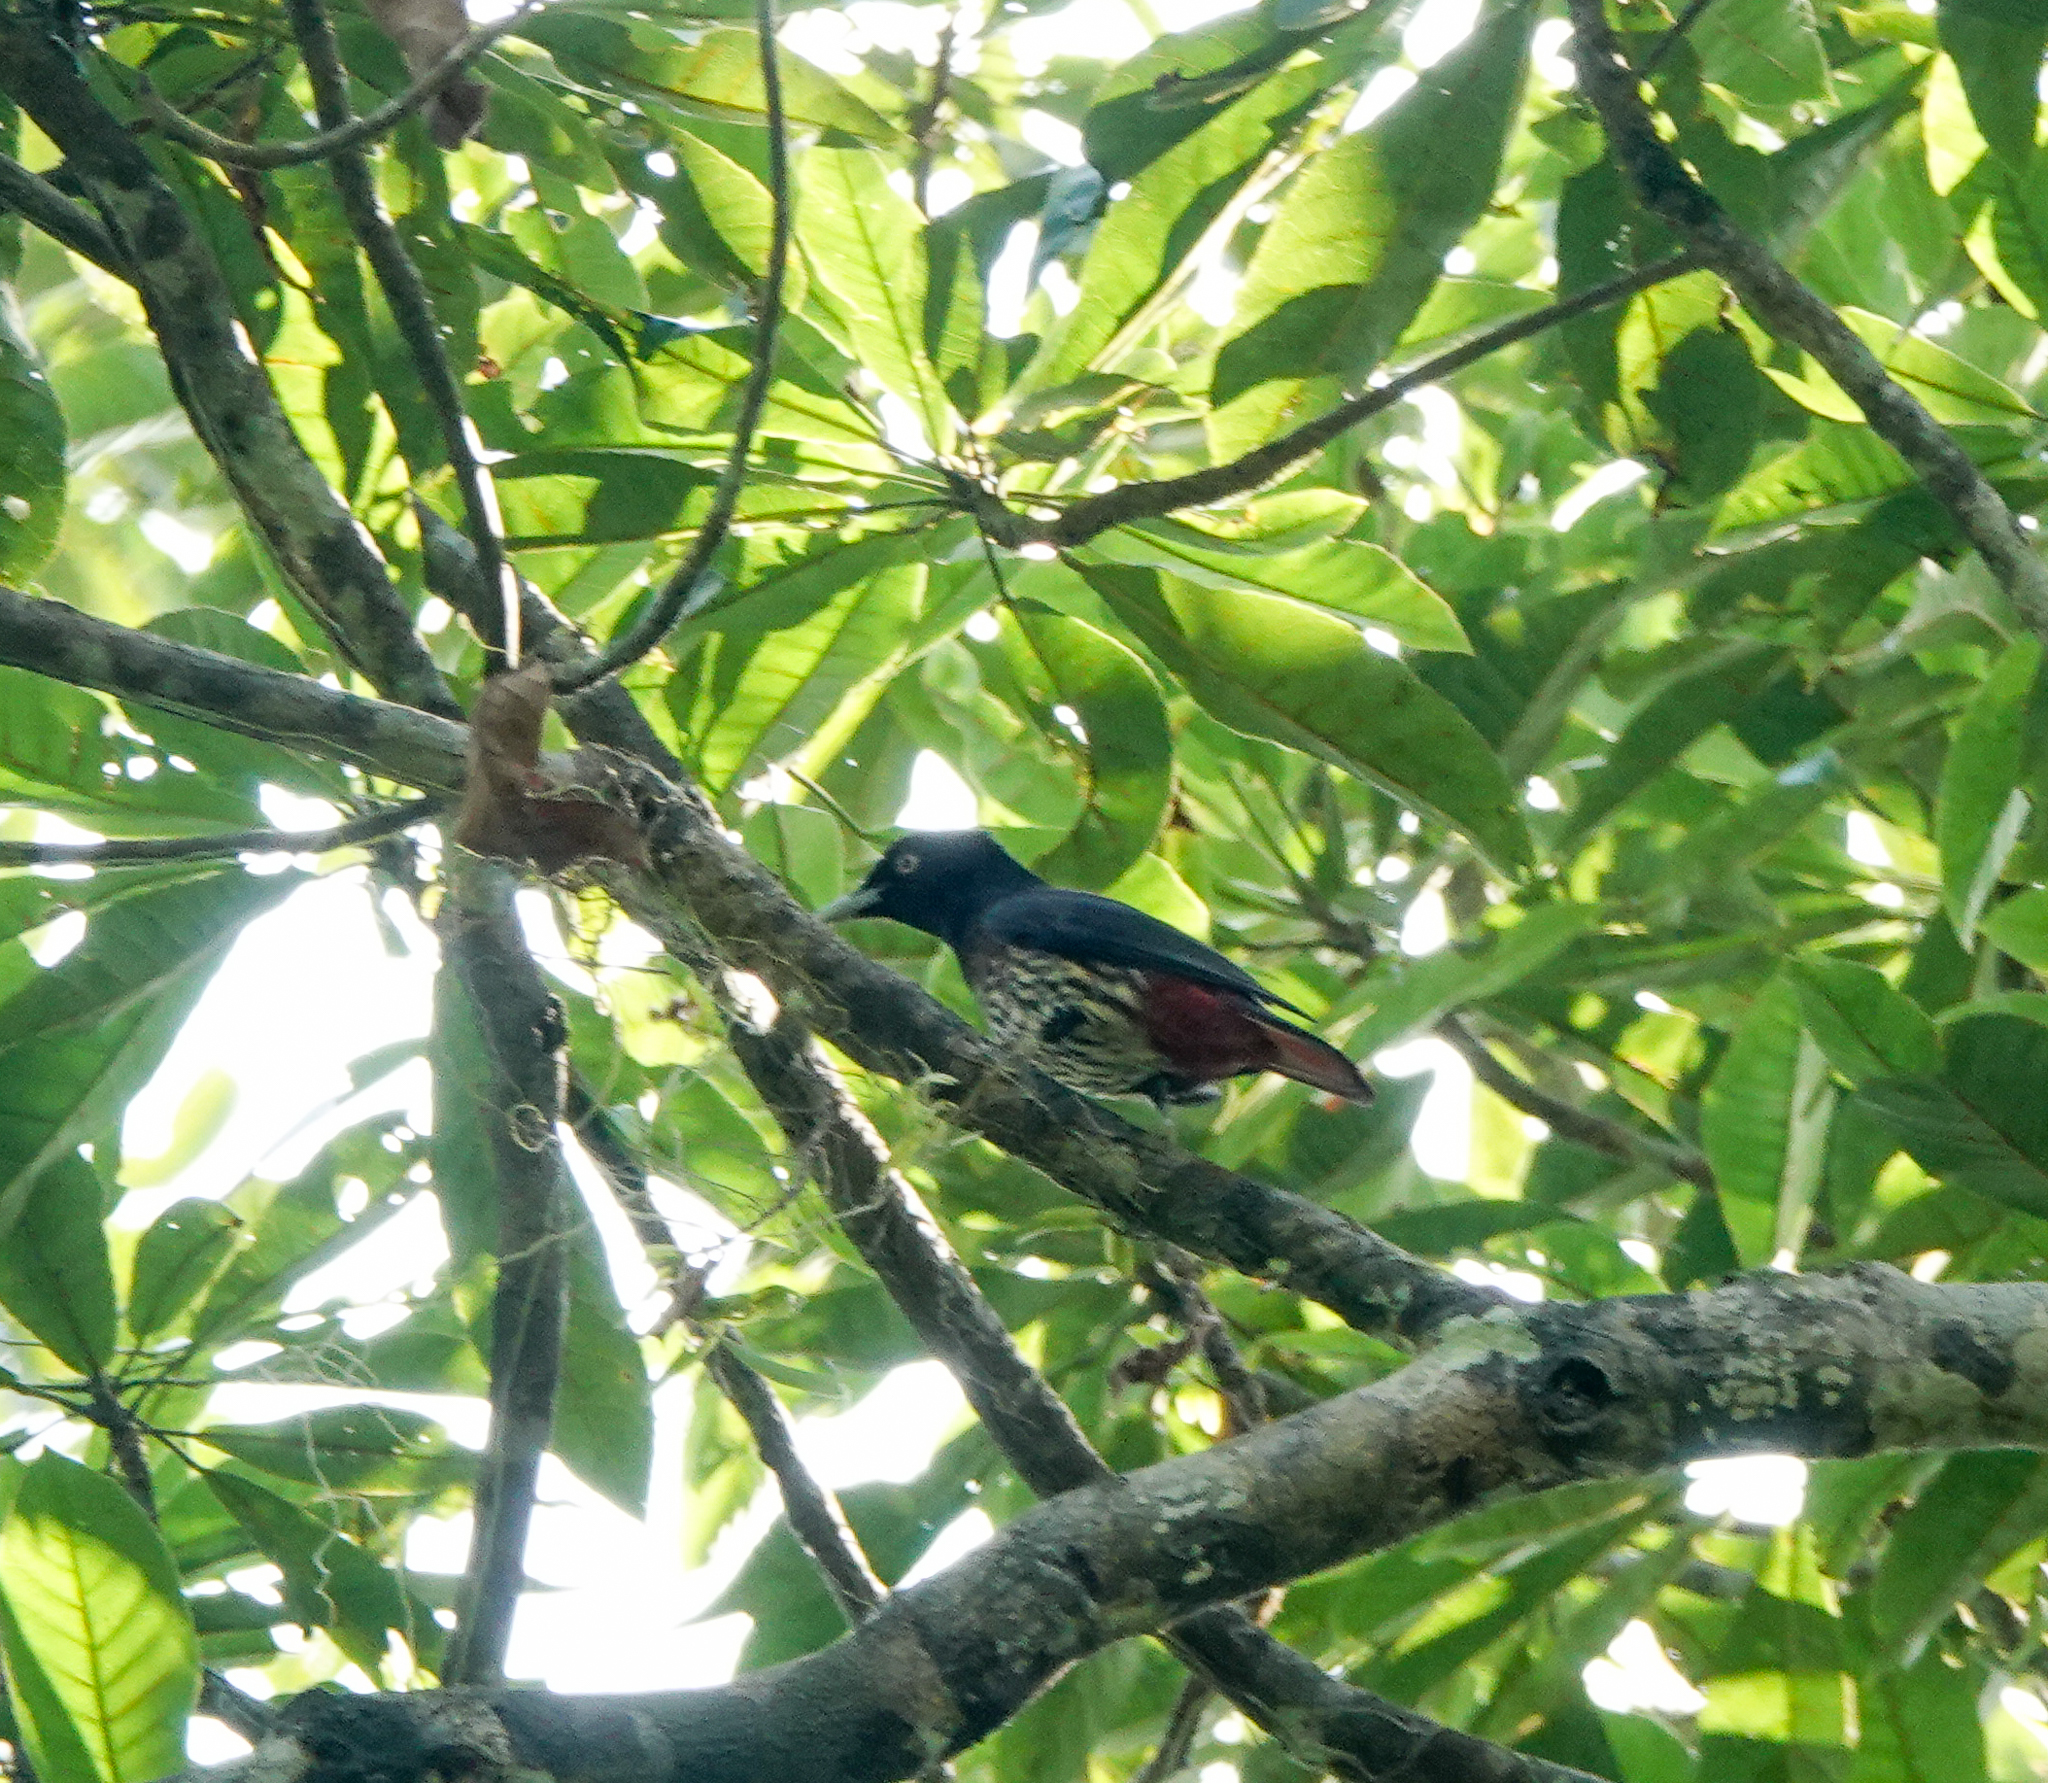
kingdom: Animalia
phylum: Chordata
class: Aves
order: Passeriformes
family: Oriolidae
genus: Oriolus
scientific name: Oriolus traillii
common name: Maroon oriole
